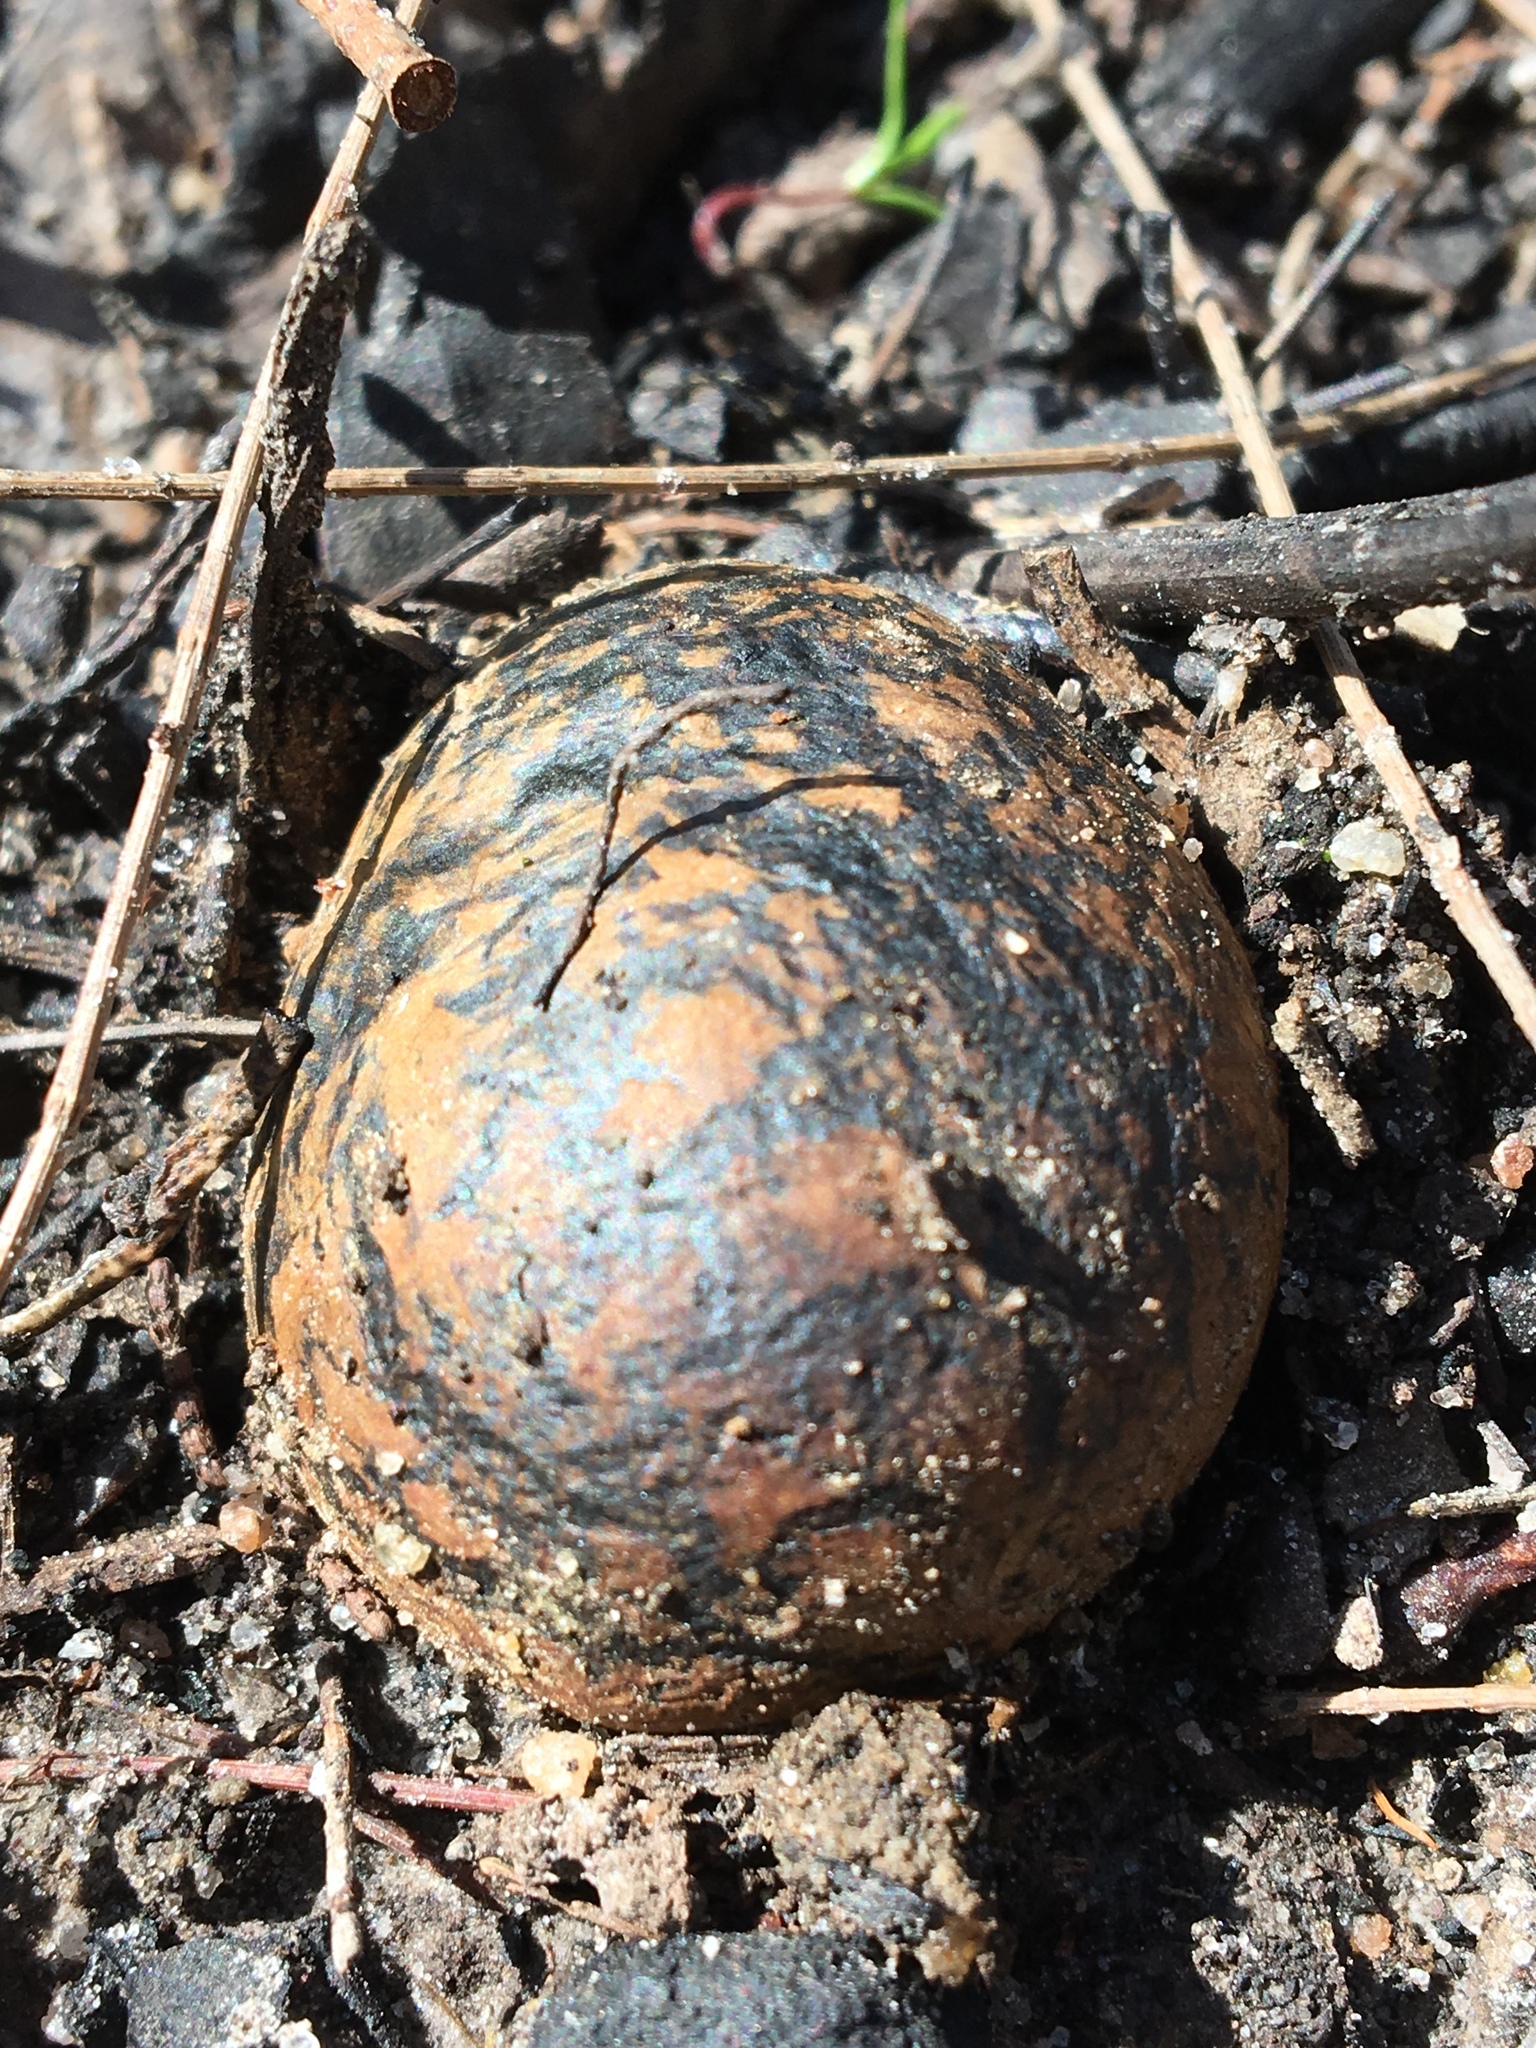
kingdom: Fungi
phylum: Basidiomycota
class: Agaricomycetes
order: Boletales
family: Sclerodermataceae
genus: Pisolithus
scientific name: Pisolithus arhizus
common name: Dyeball
